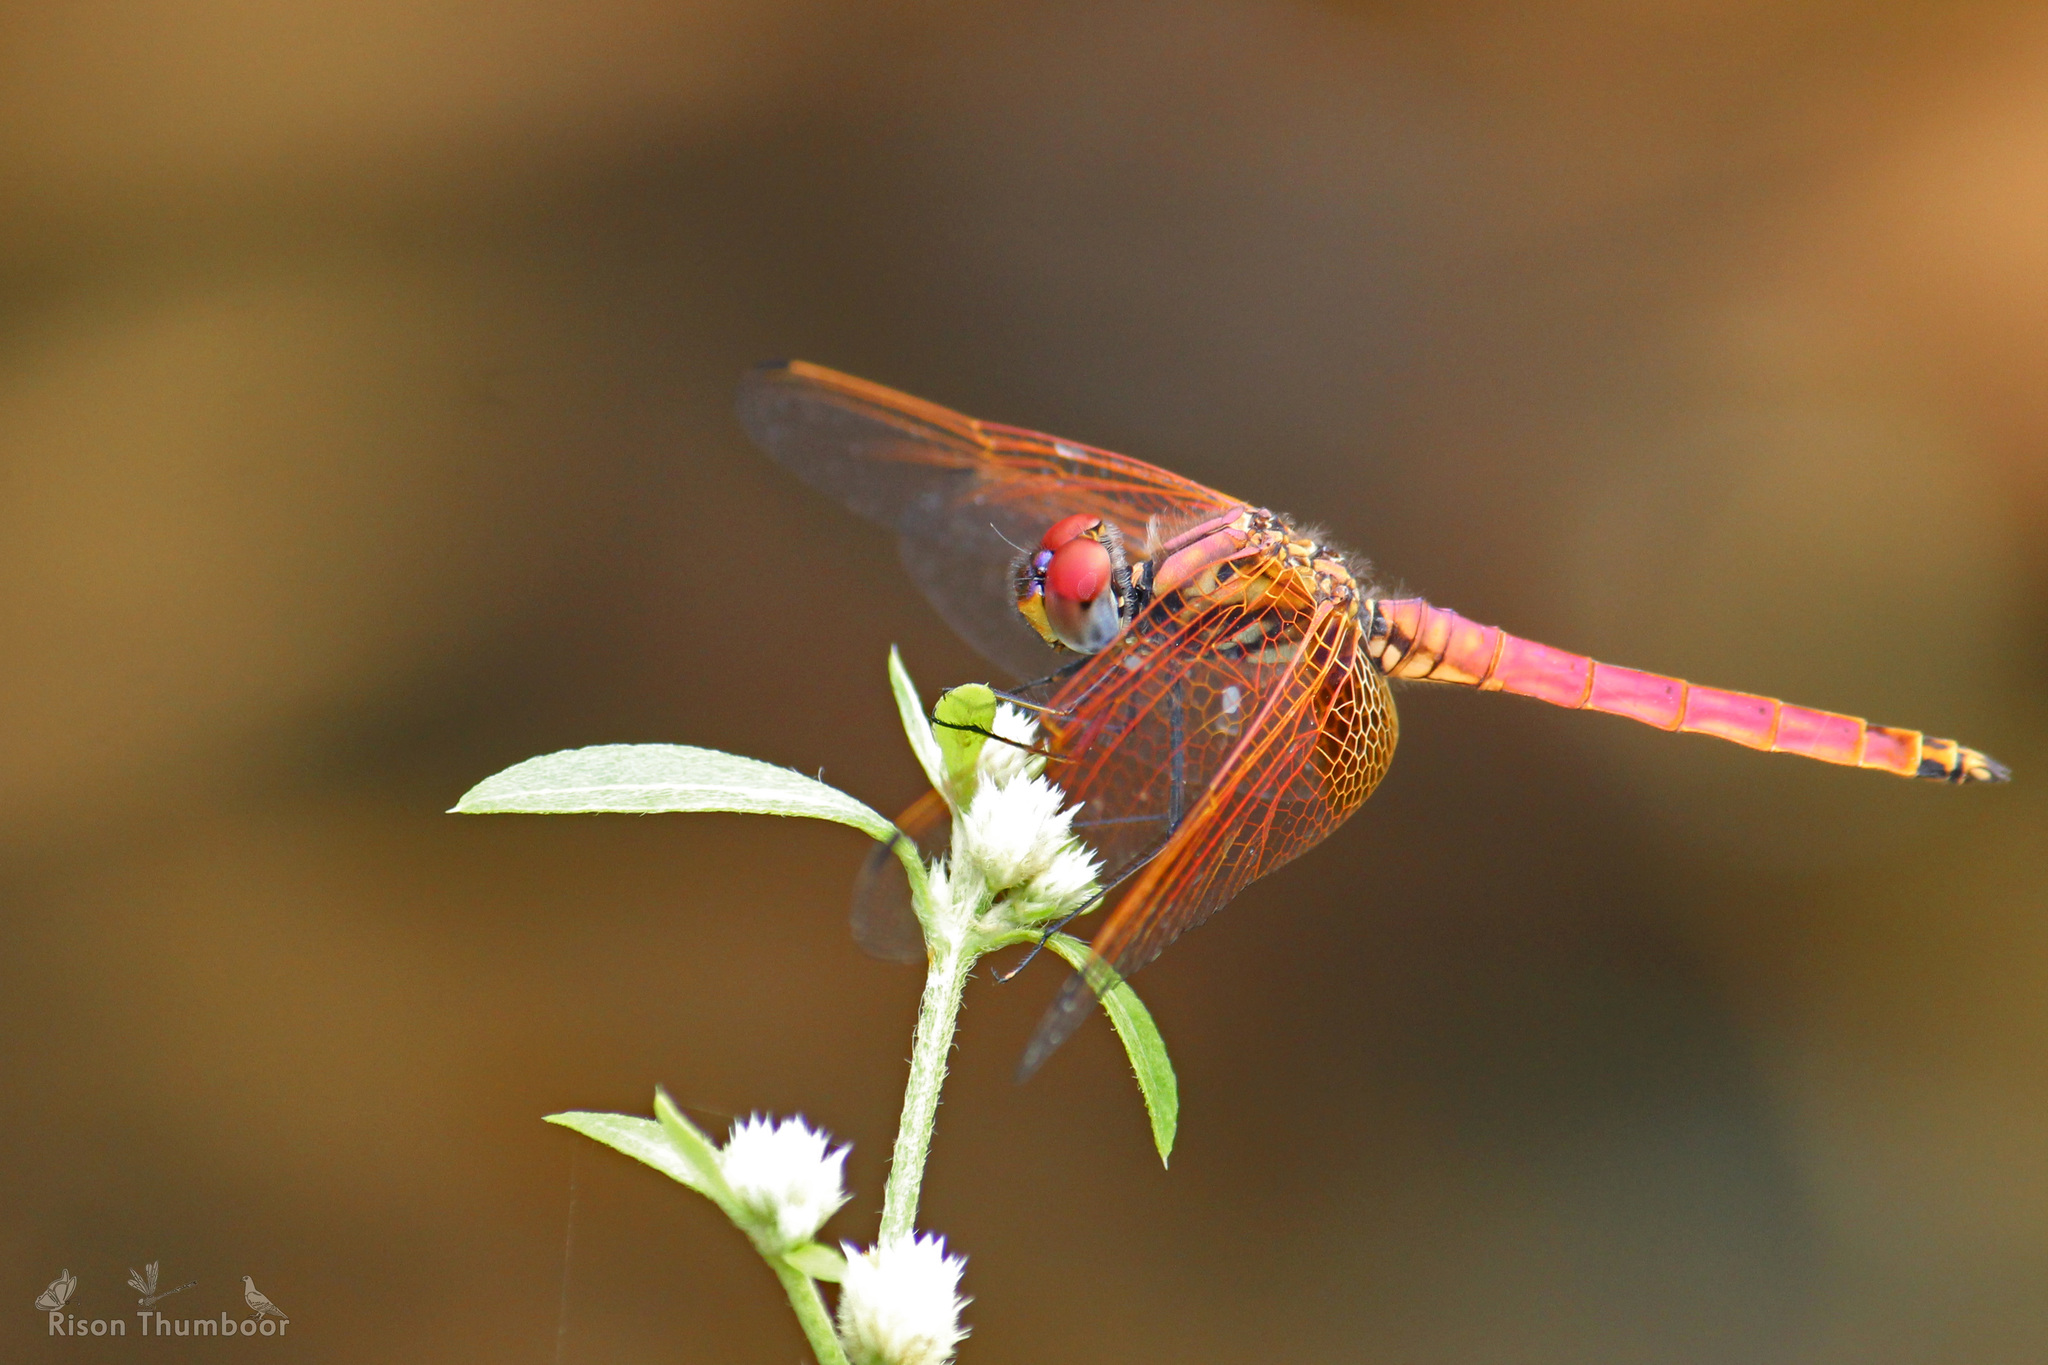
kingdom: Animalia
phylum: Arthropoda
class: Insecta
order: Odonata
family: Libellulidae
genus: Trithemis
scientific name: Trithemis aurora
